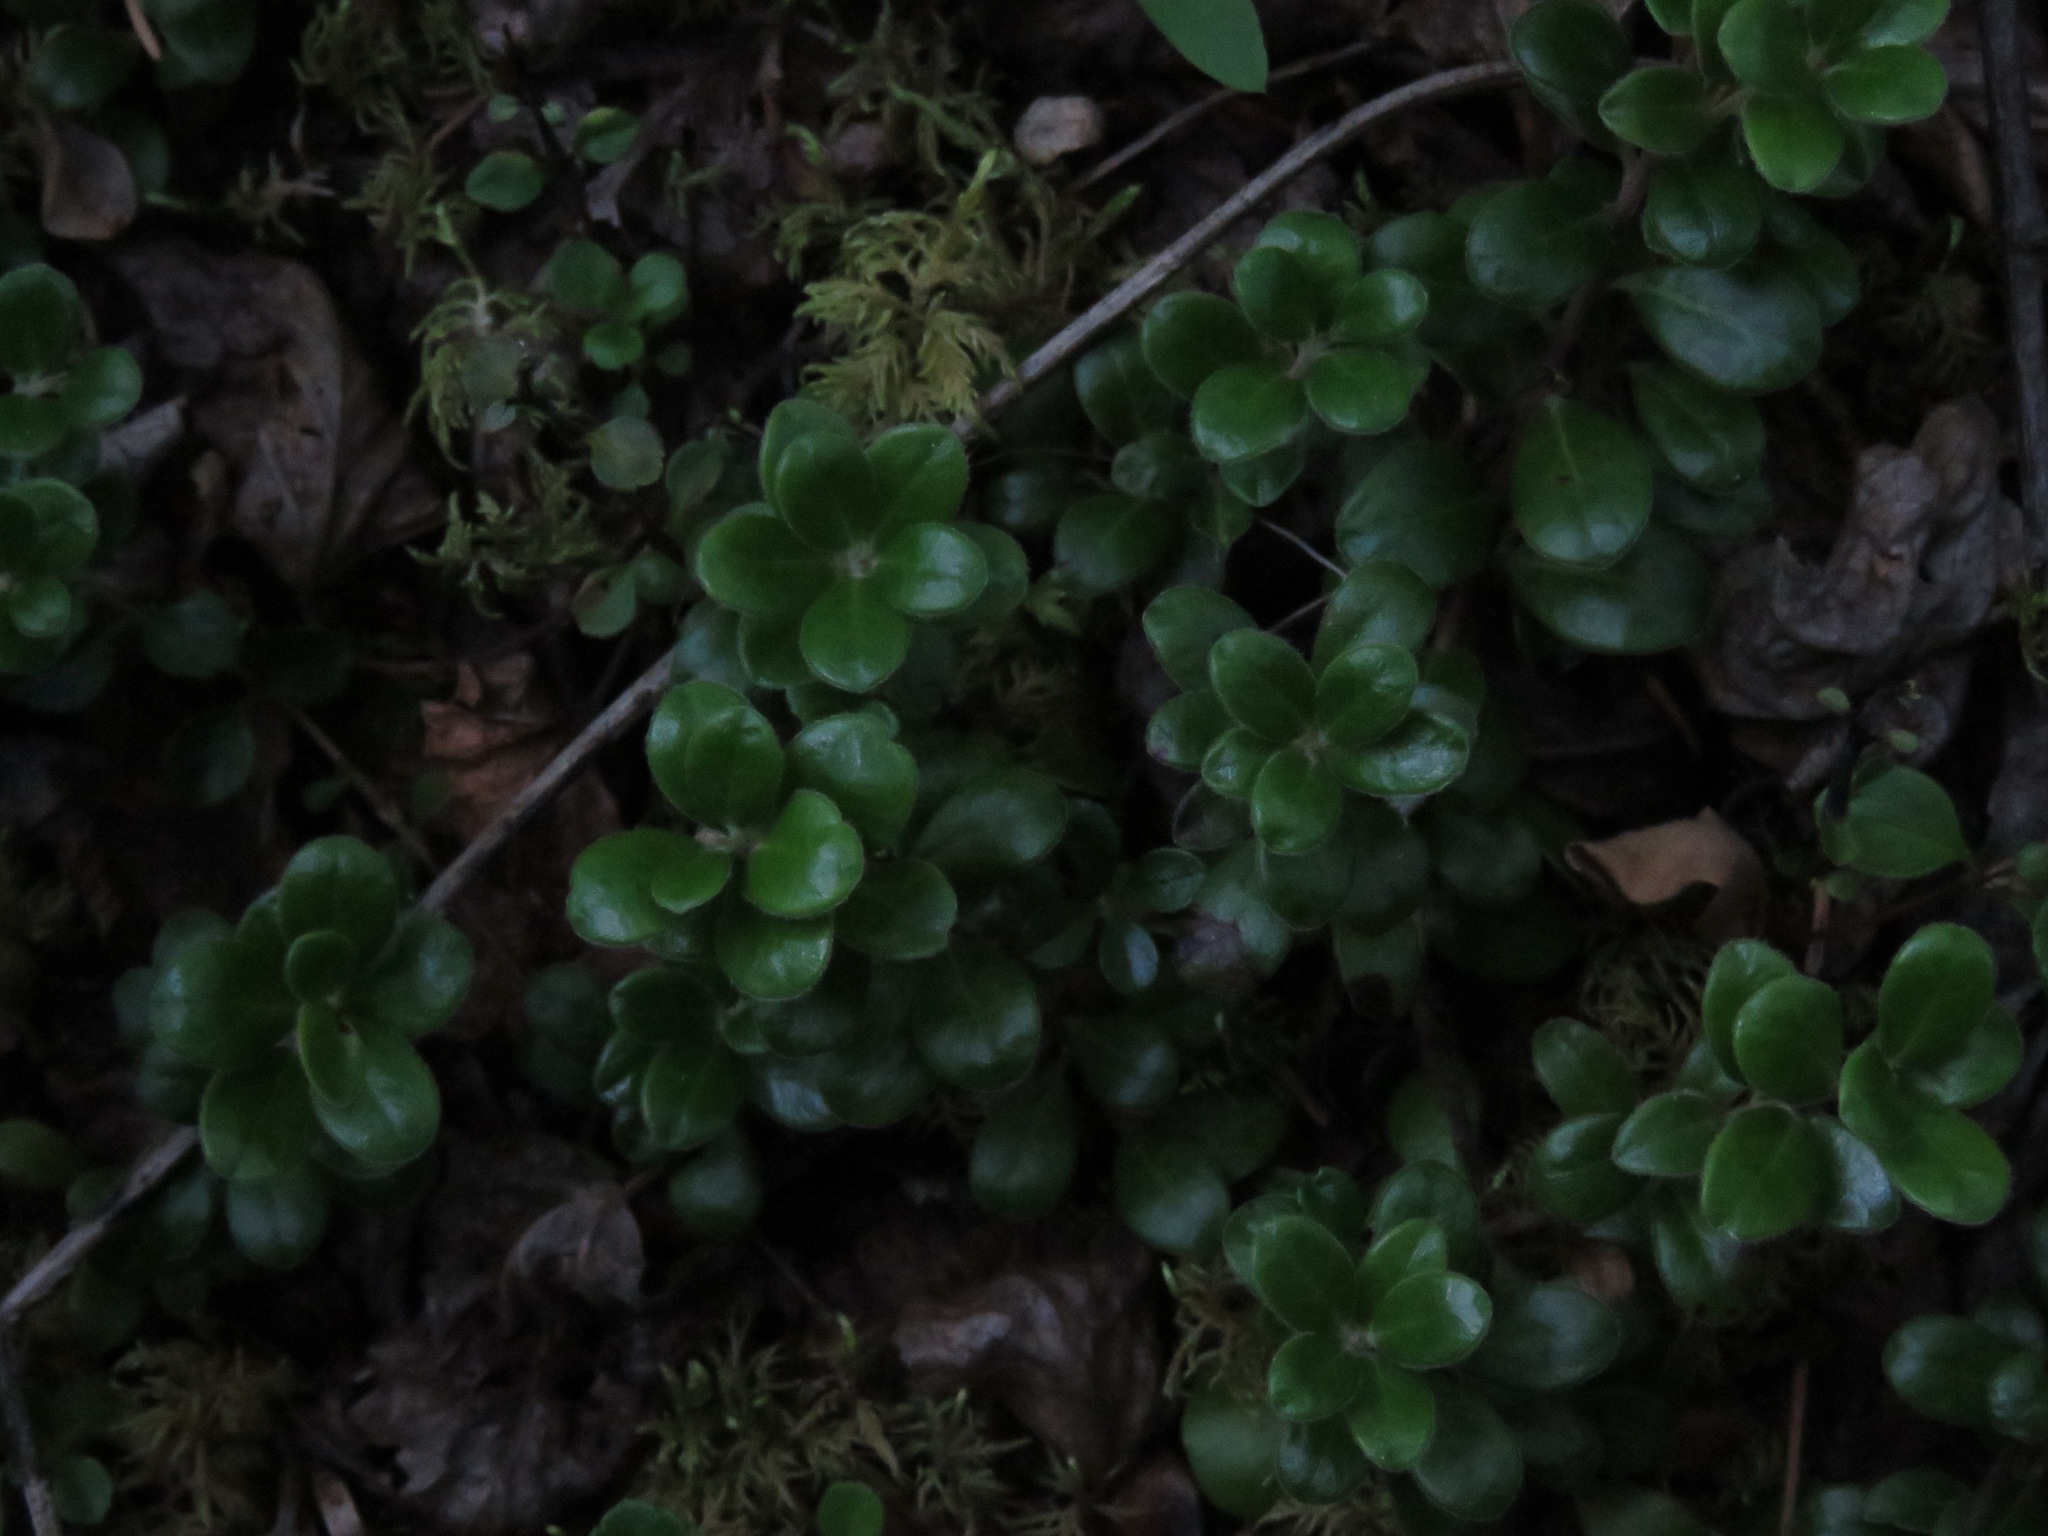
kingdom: Plantae
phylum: Tracheophyta
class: Magnoliopsida
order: Ericales
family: Ericaceae
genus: Arctostaphylos
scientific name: Arctostaphylos uva-ursi
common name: Bearberry
